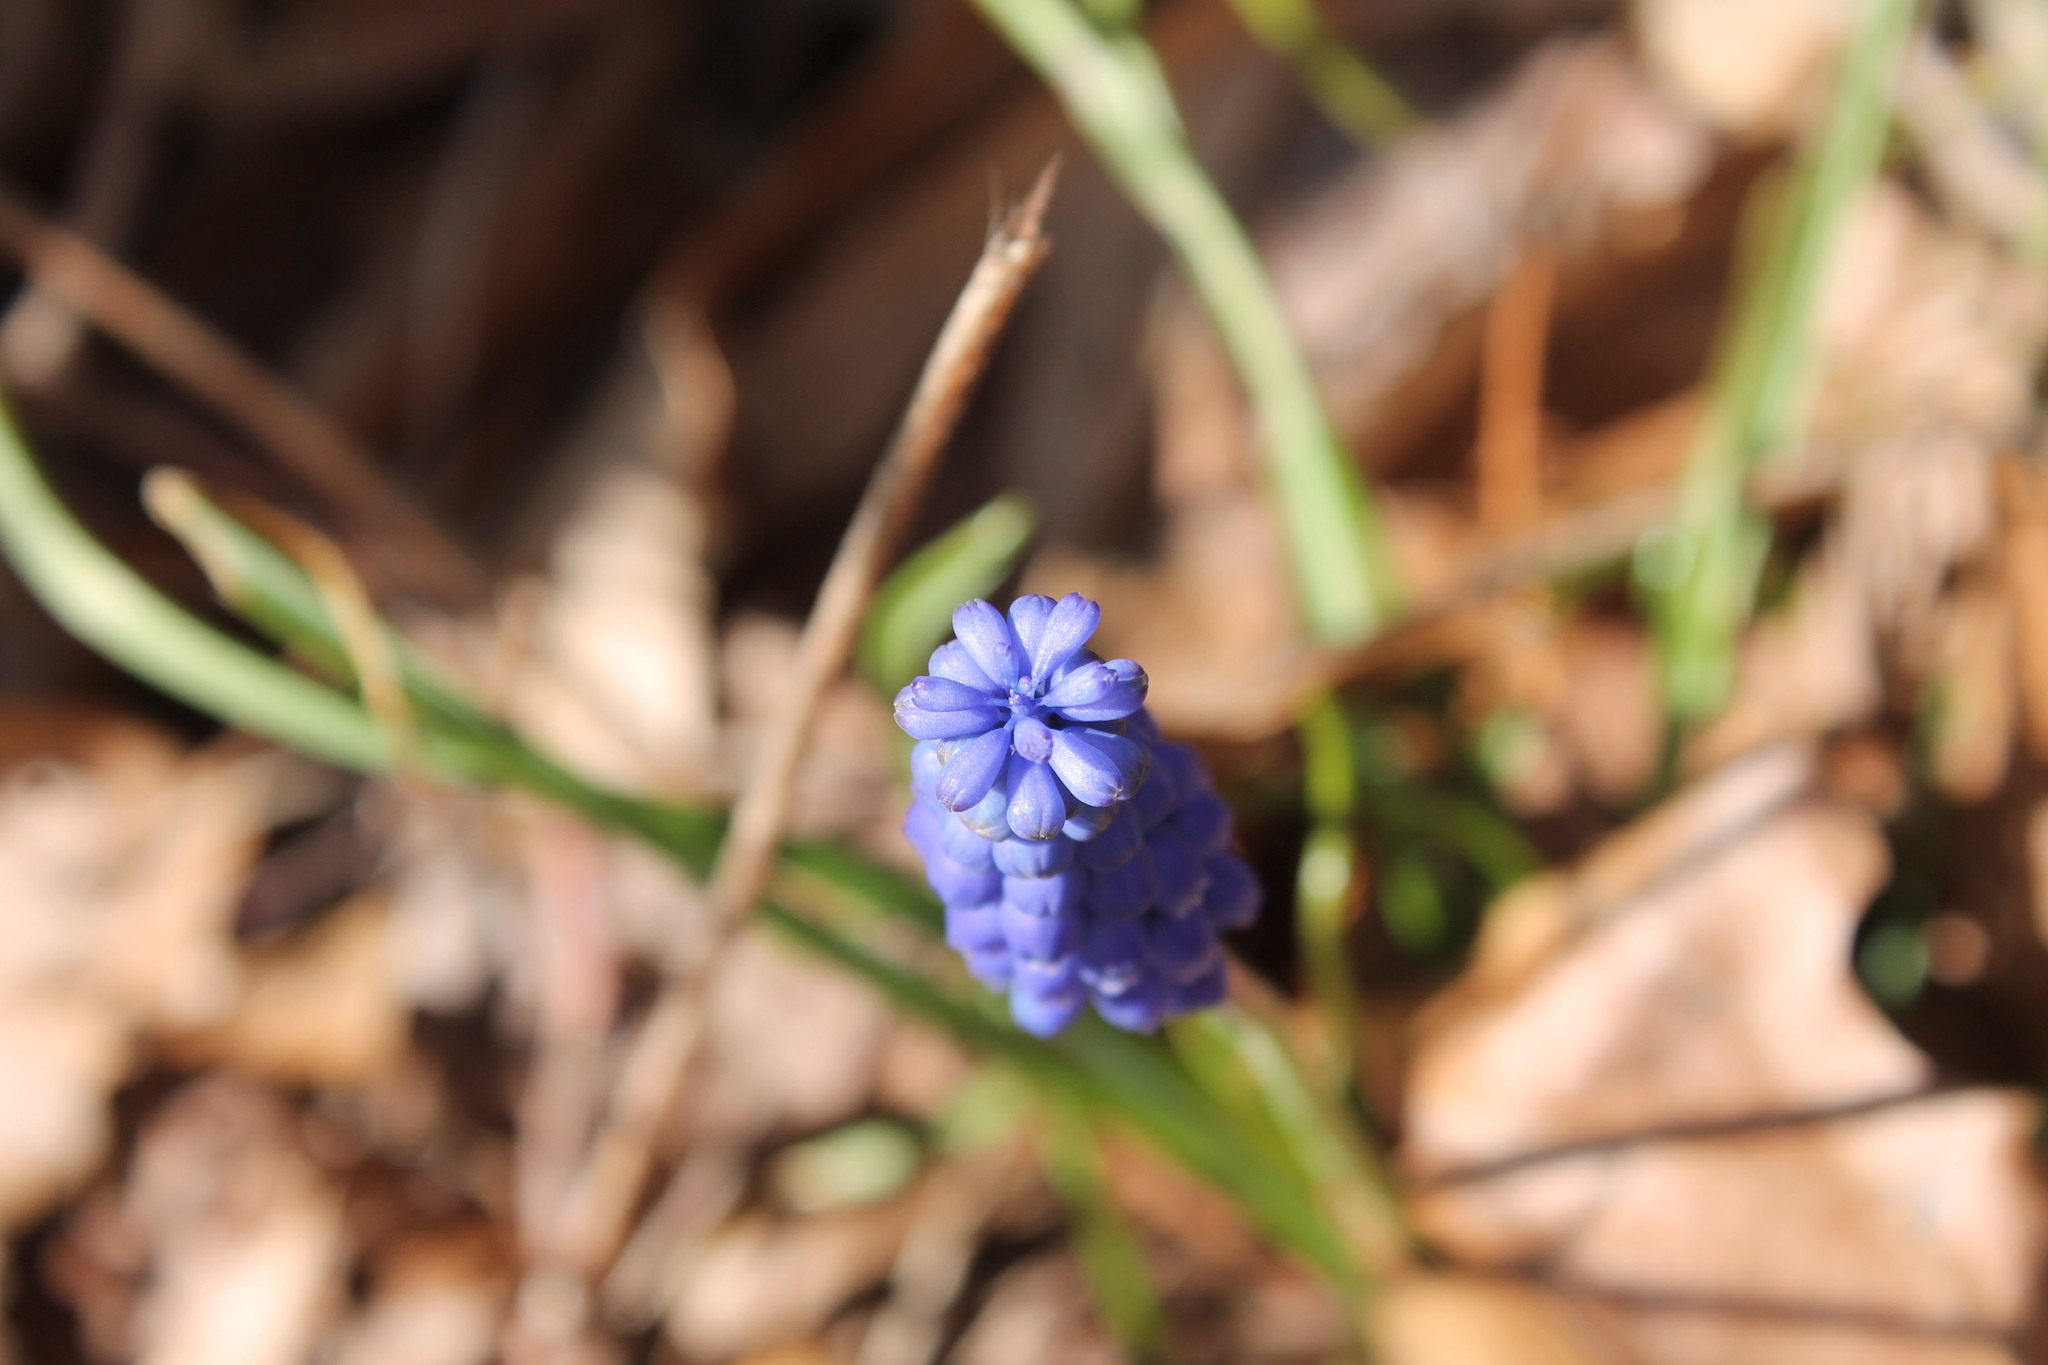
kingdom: Plantae
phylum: Tracheophyta
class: Liliopsida
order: Asparagales
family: Asparagaceae
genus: Muscari
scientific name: Muscari botryoides
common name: Compact grape-hyacinth
